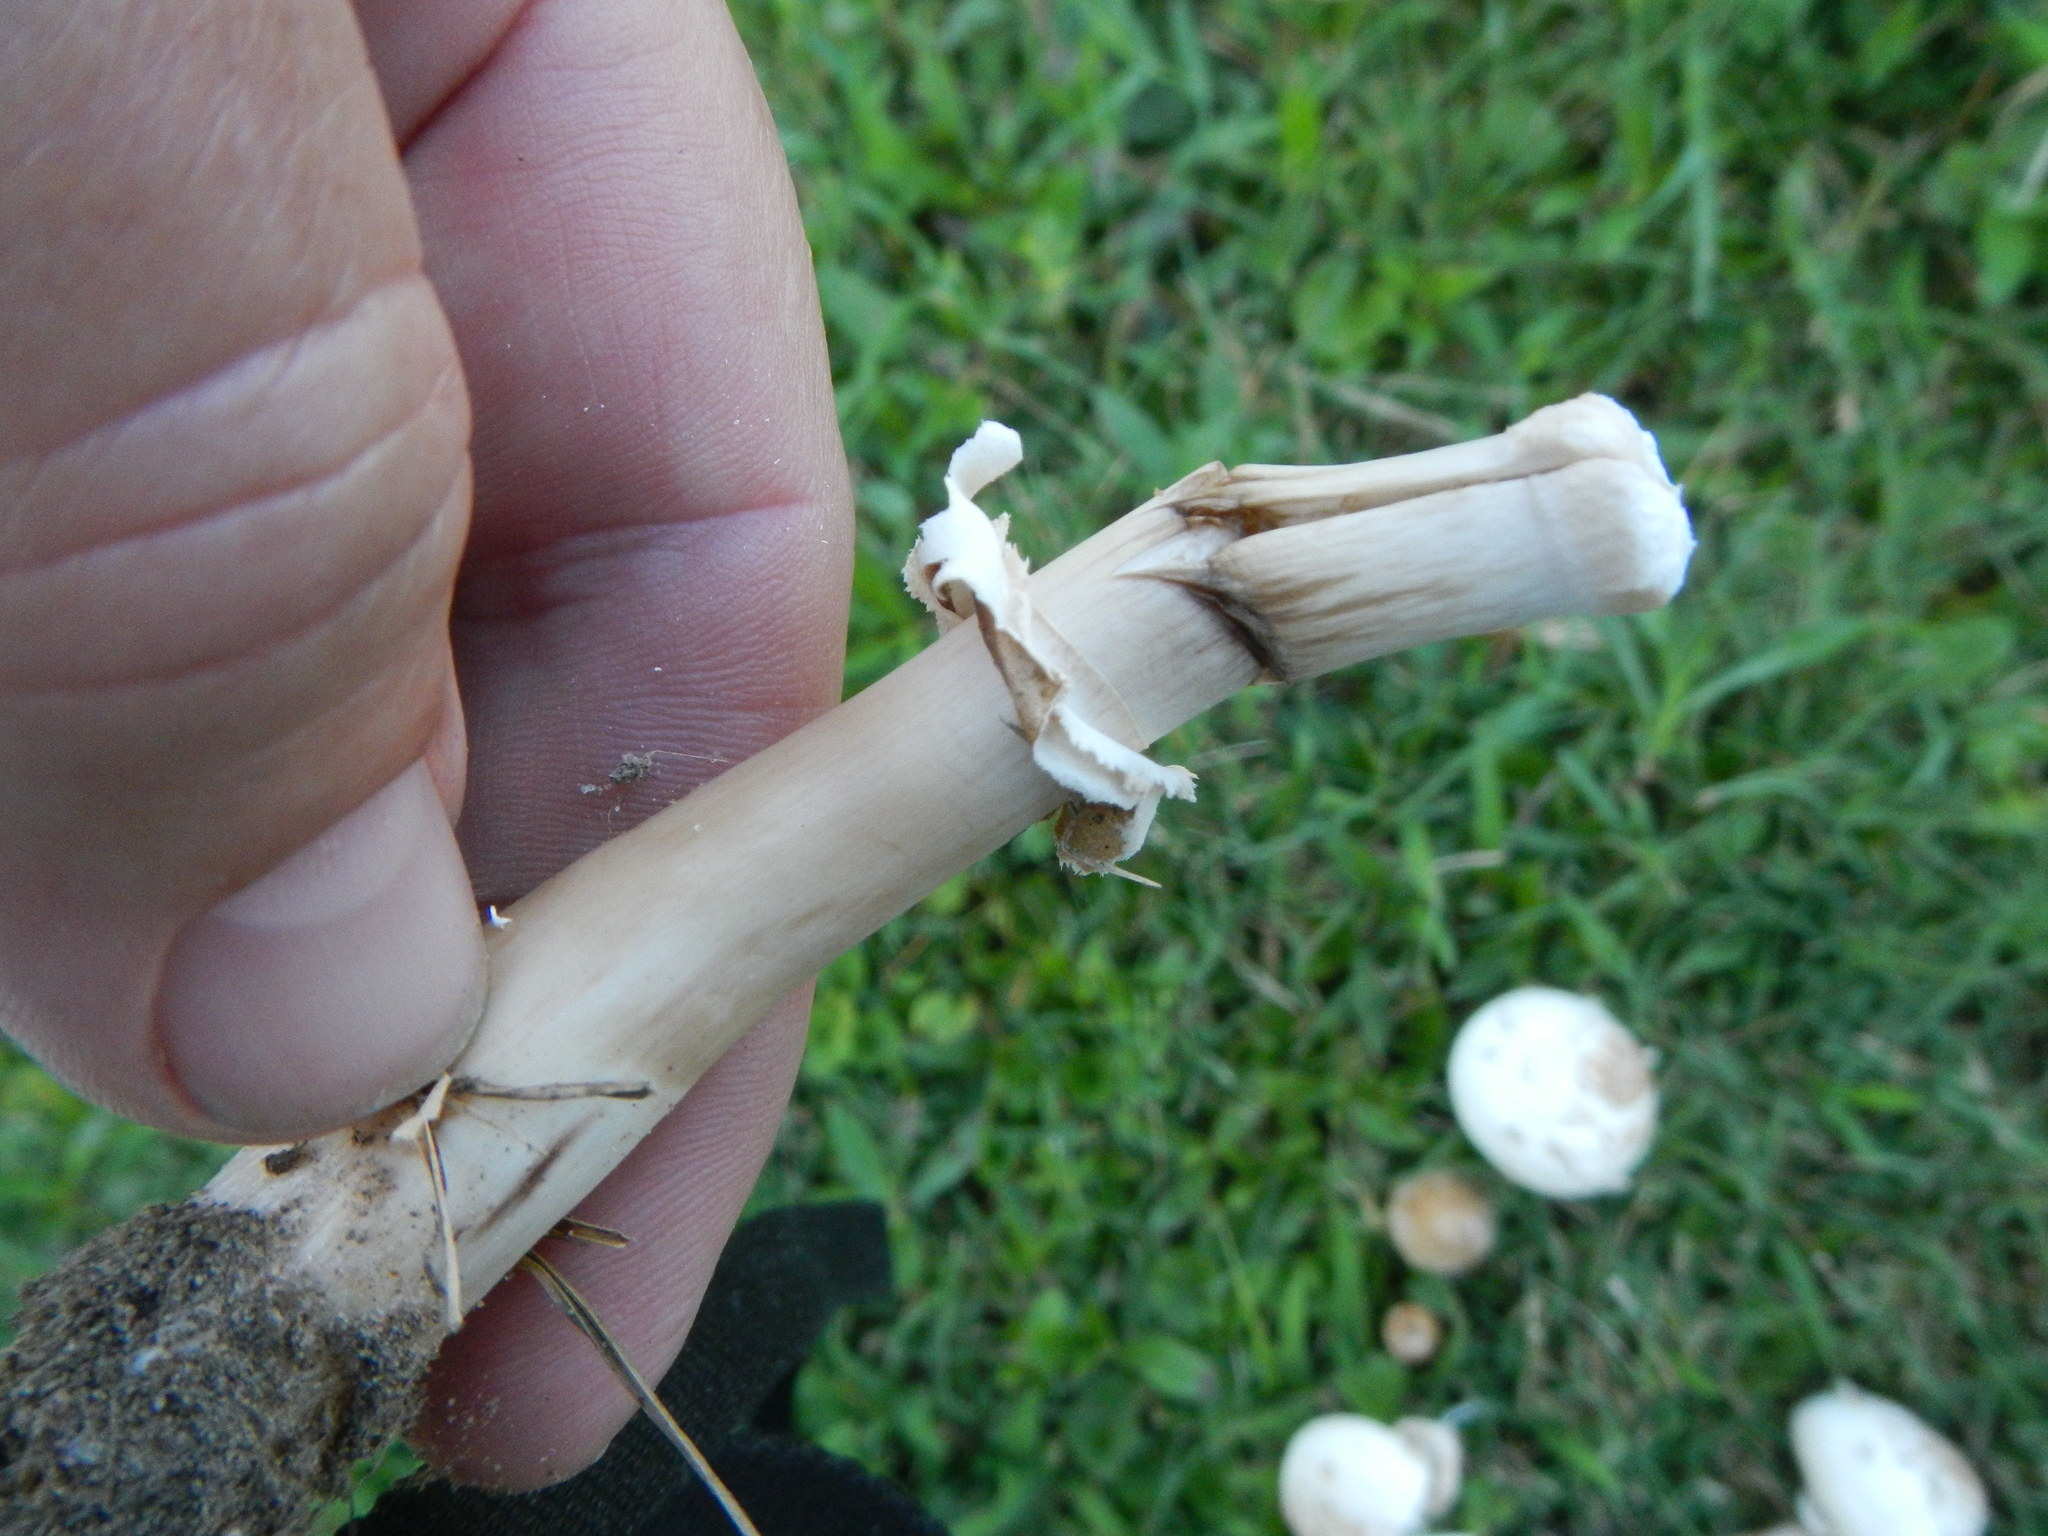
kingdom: Fungi
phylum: Basidiomycota
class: Agaricomycetes
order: Agaricales
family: Agaricaceae
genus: Chlorophyllum
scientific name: Chlorophyllum molybdites
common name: False parasol
